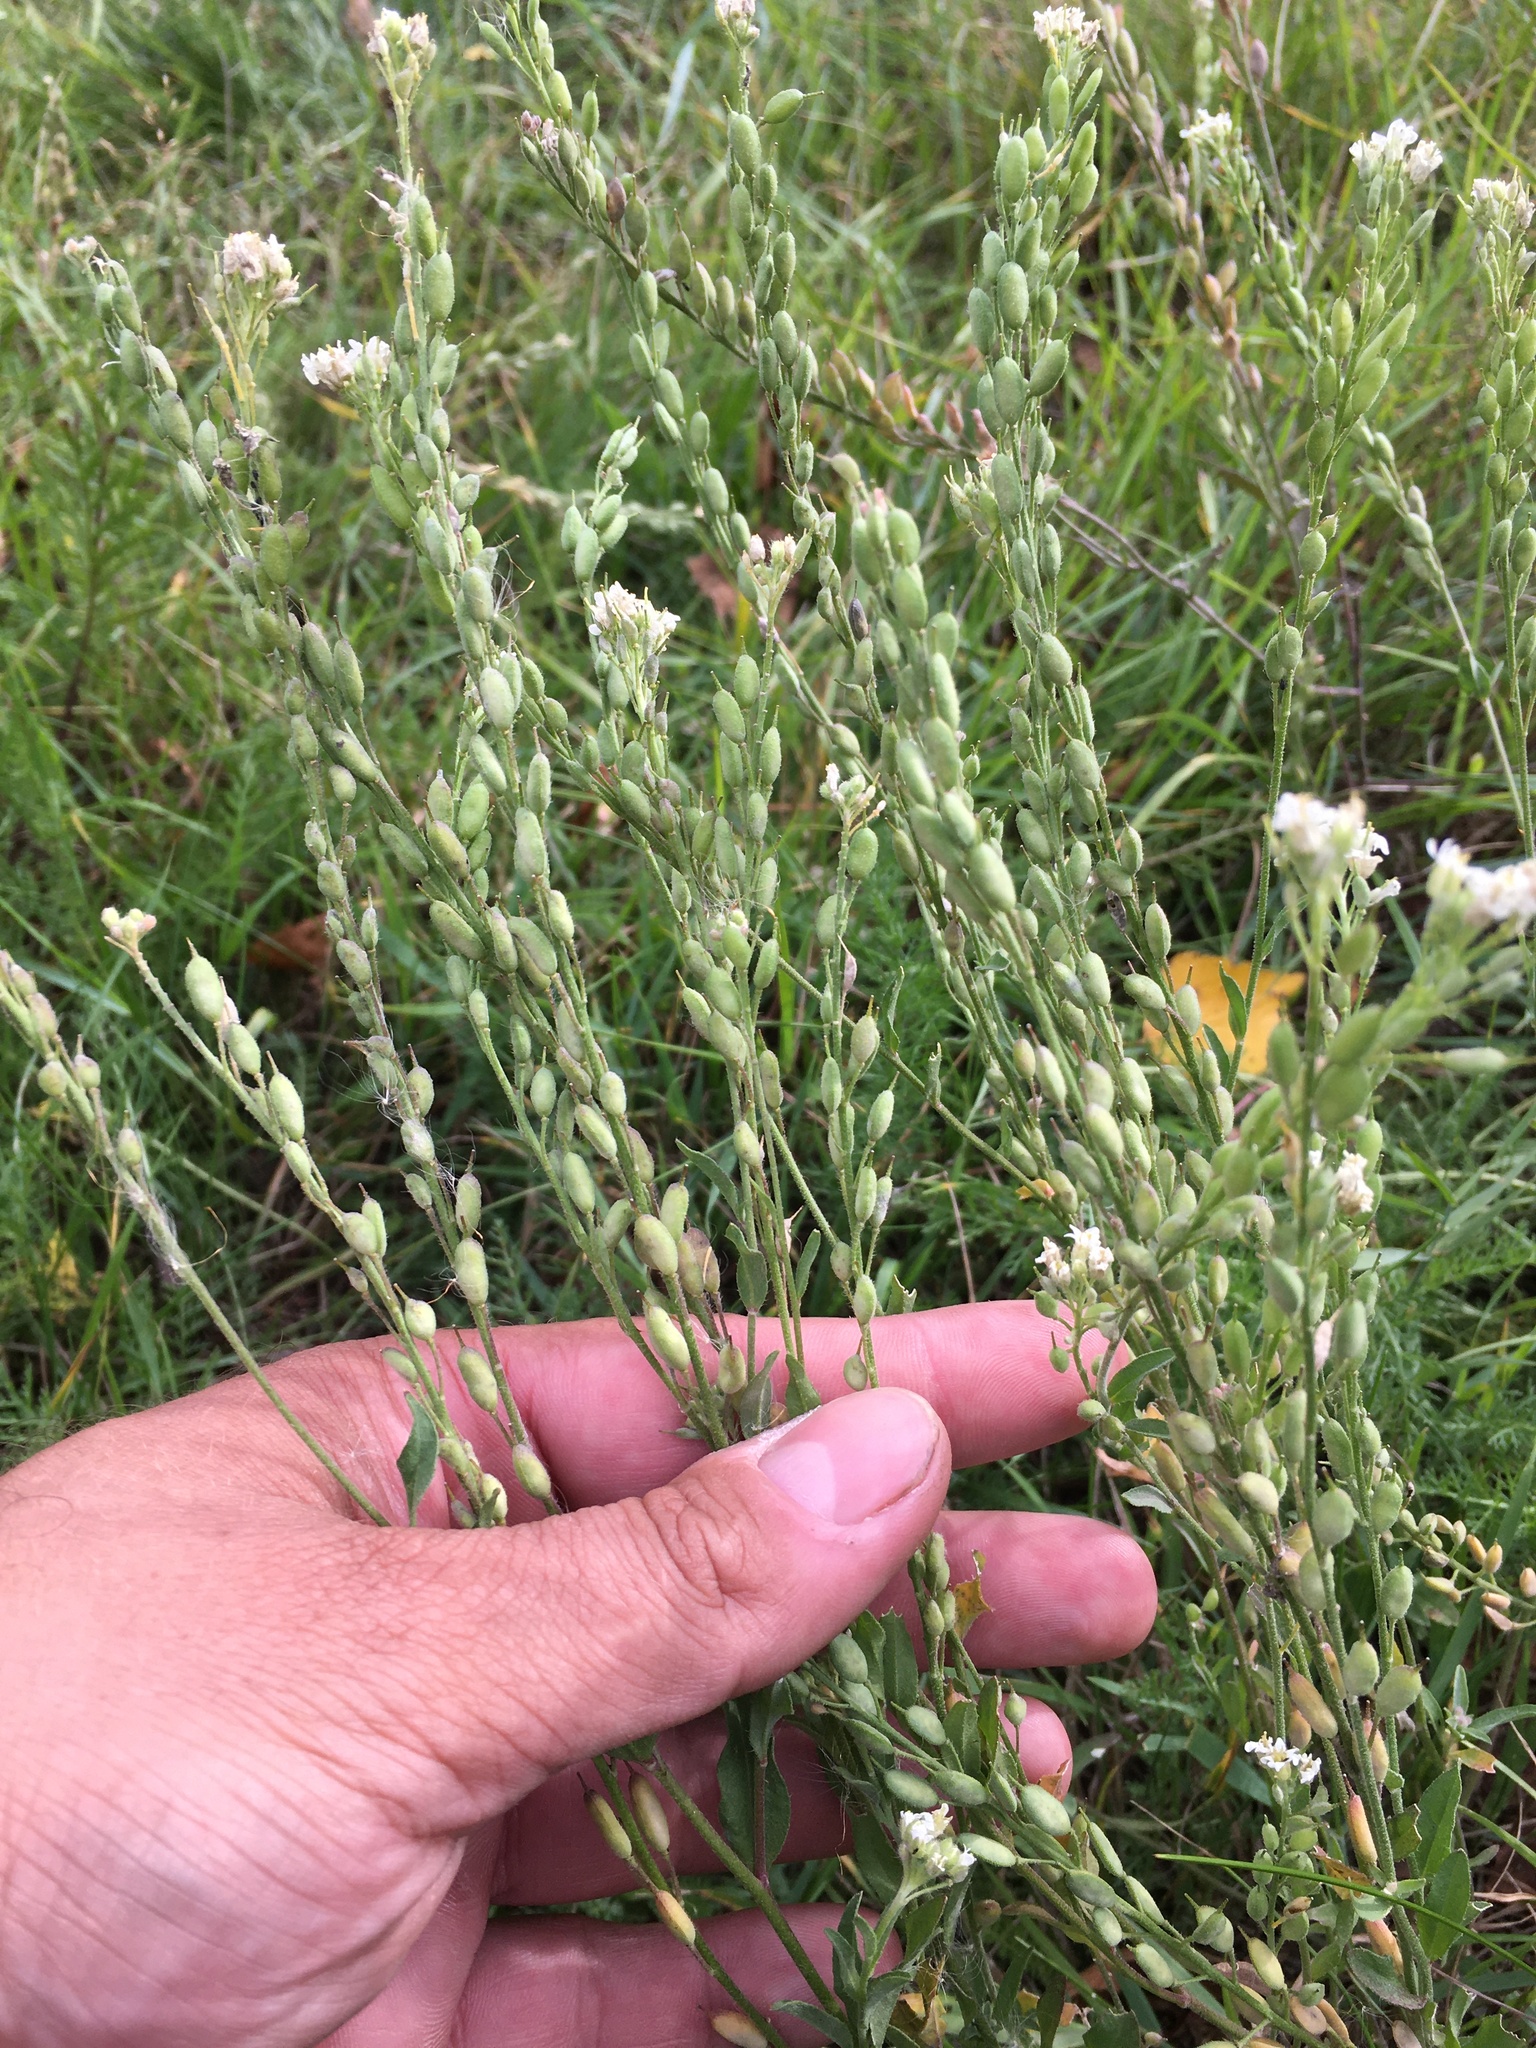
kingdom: Plantae
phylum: Tracheophyta
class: Magnoliopsida
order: Brassicales
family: Brassicaceae
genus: Berteroa
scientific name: Berteroa incana
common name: Hoary alison
